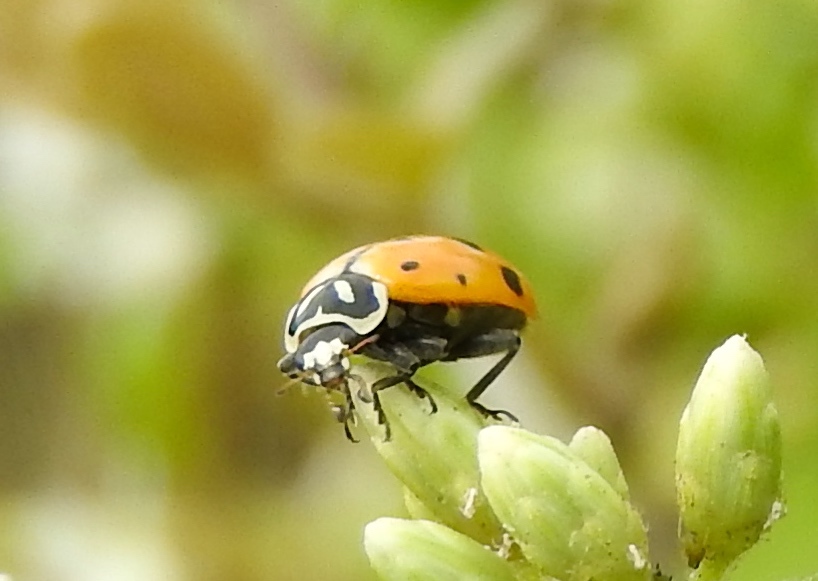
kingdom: Animalia
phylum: Arthropoda
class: Insecta
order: Coleoptera
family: Coccinellidae
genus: Hippodamia
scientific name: Hippodamia convergens
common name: Convergent lady beetle
